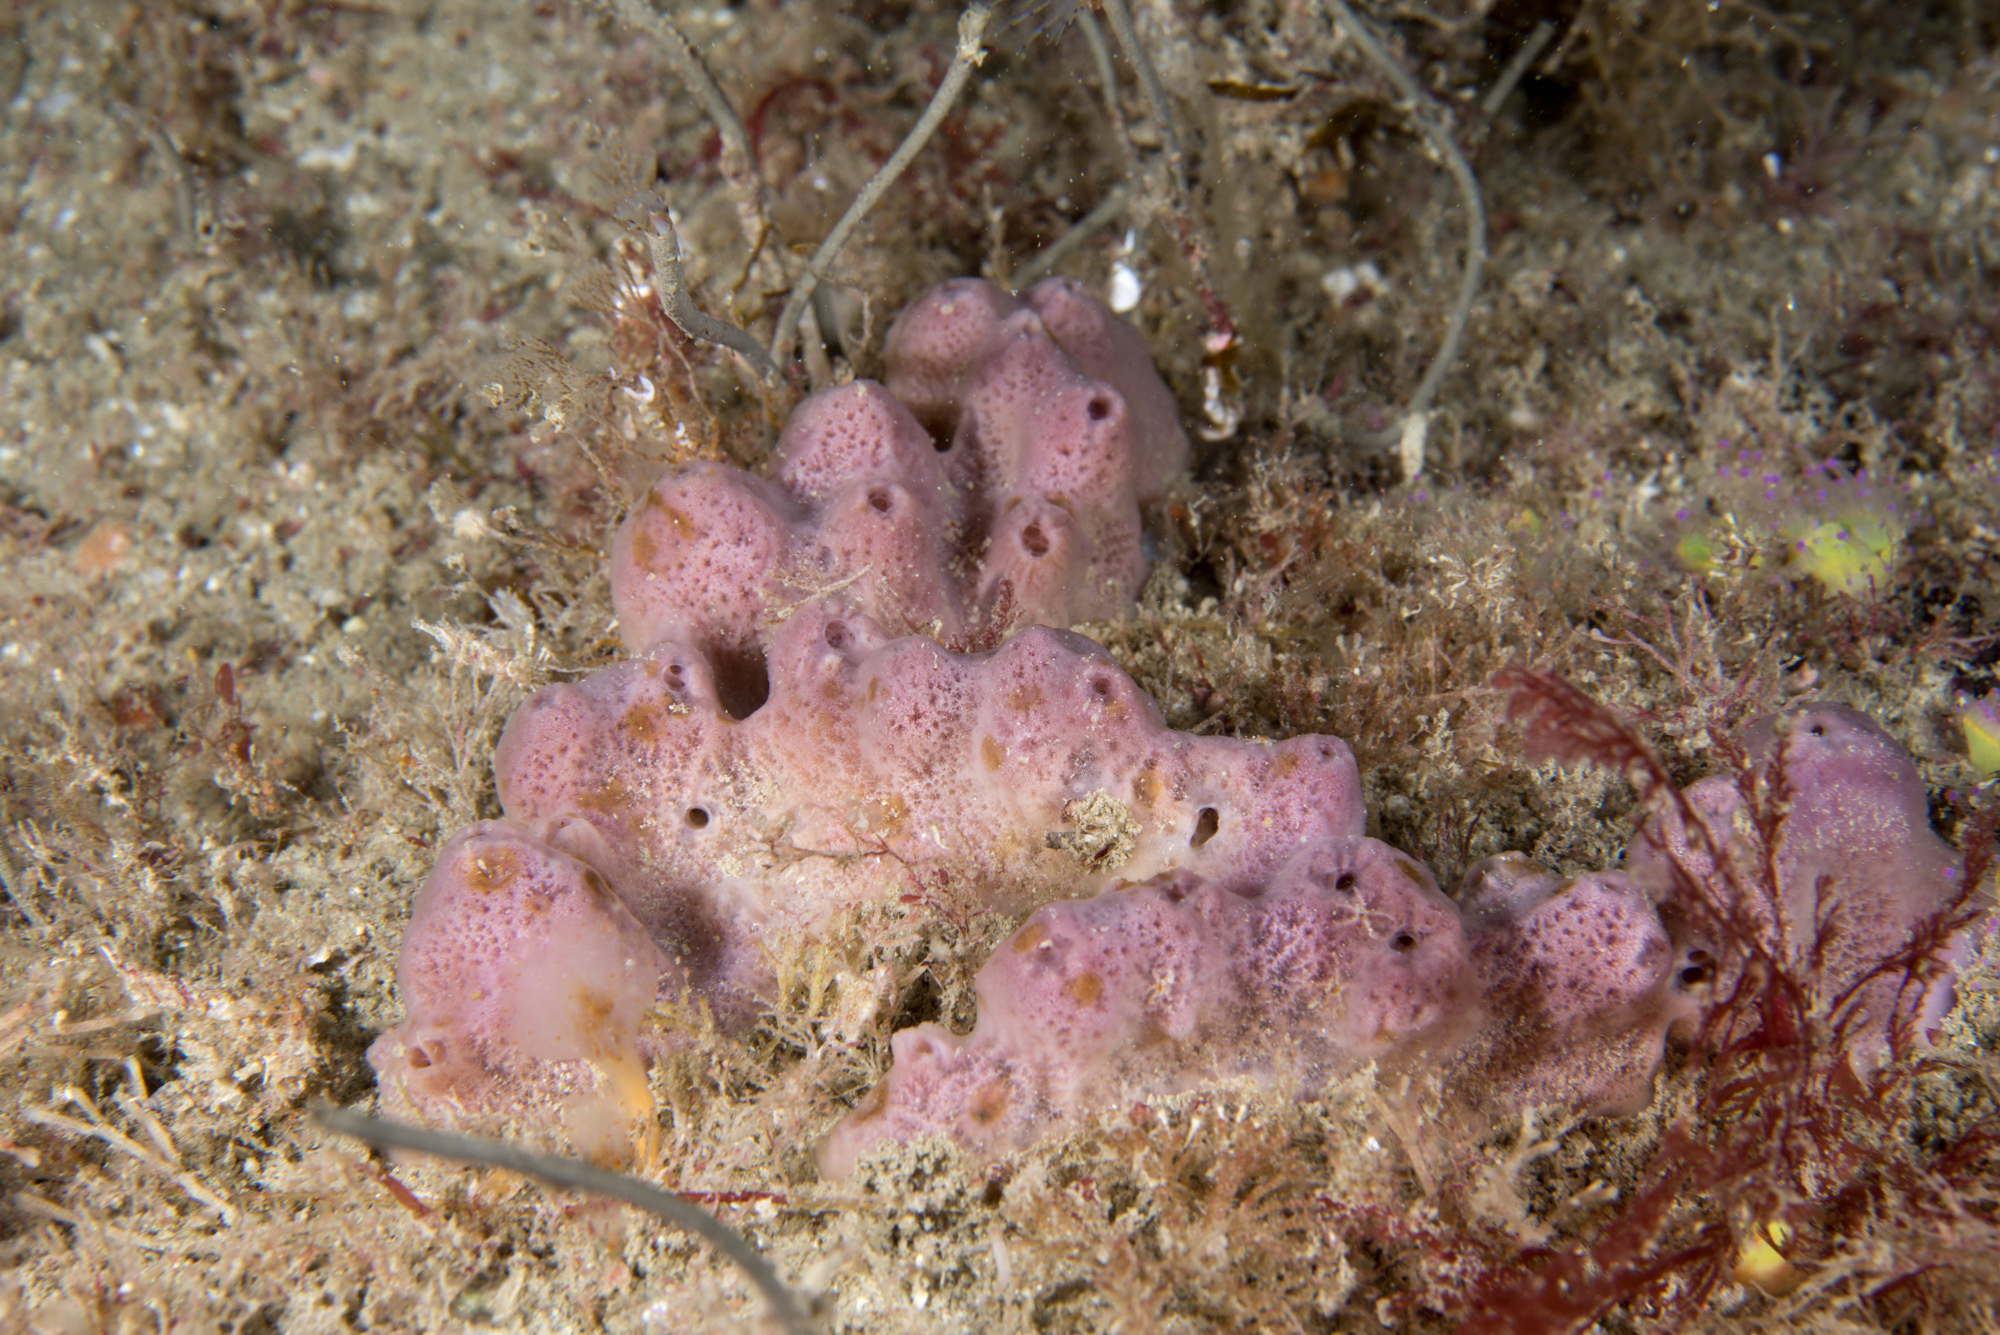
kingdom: Animalia
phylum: Porifera
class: Demospongiae
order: Haplosclerida
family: Chalinidae
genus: Haliclona
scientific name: Haliclona viscosa
